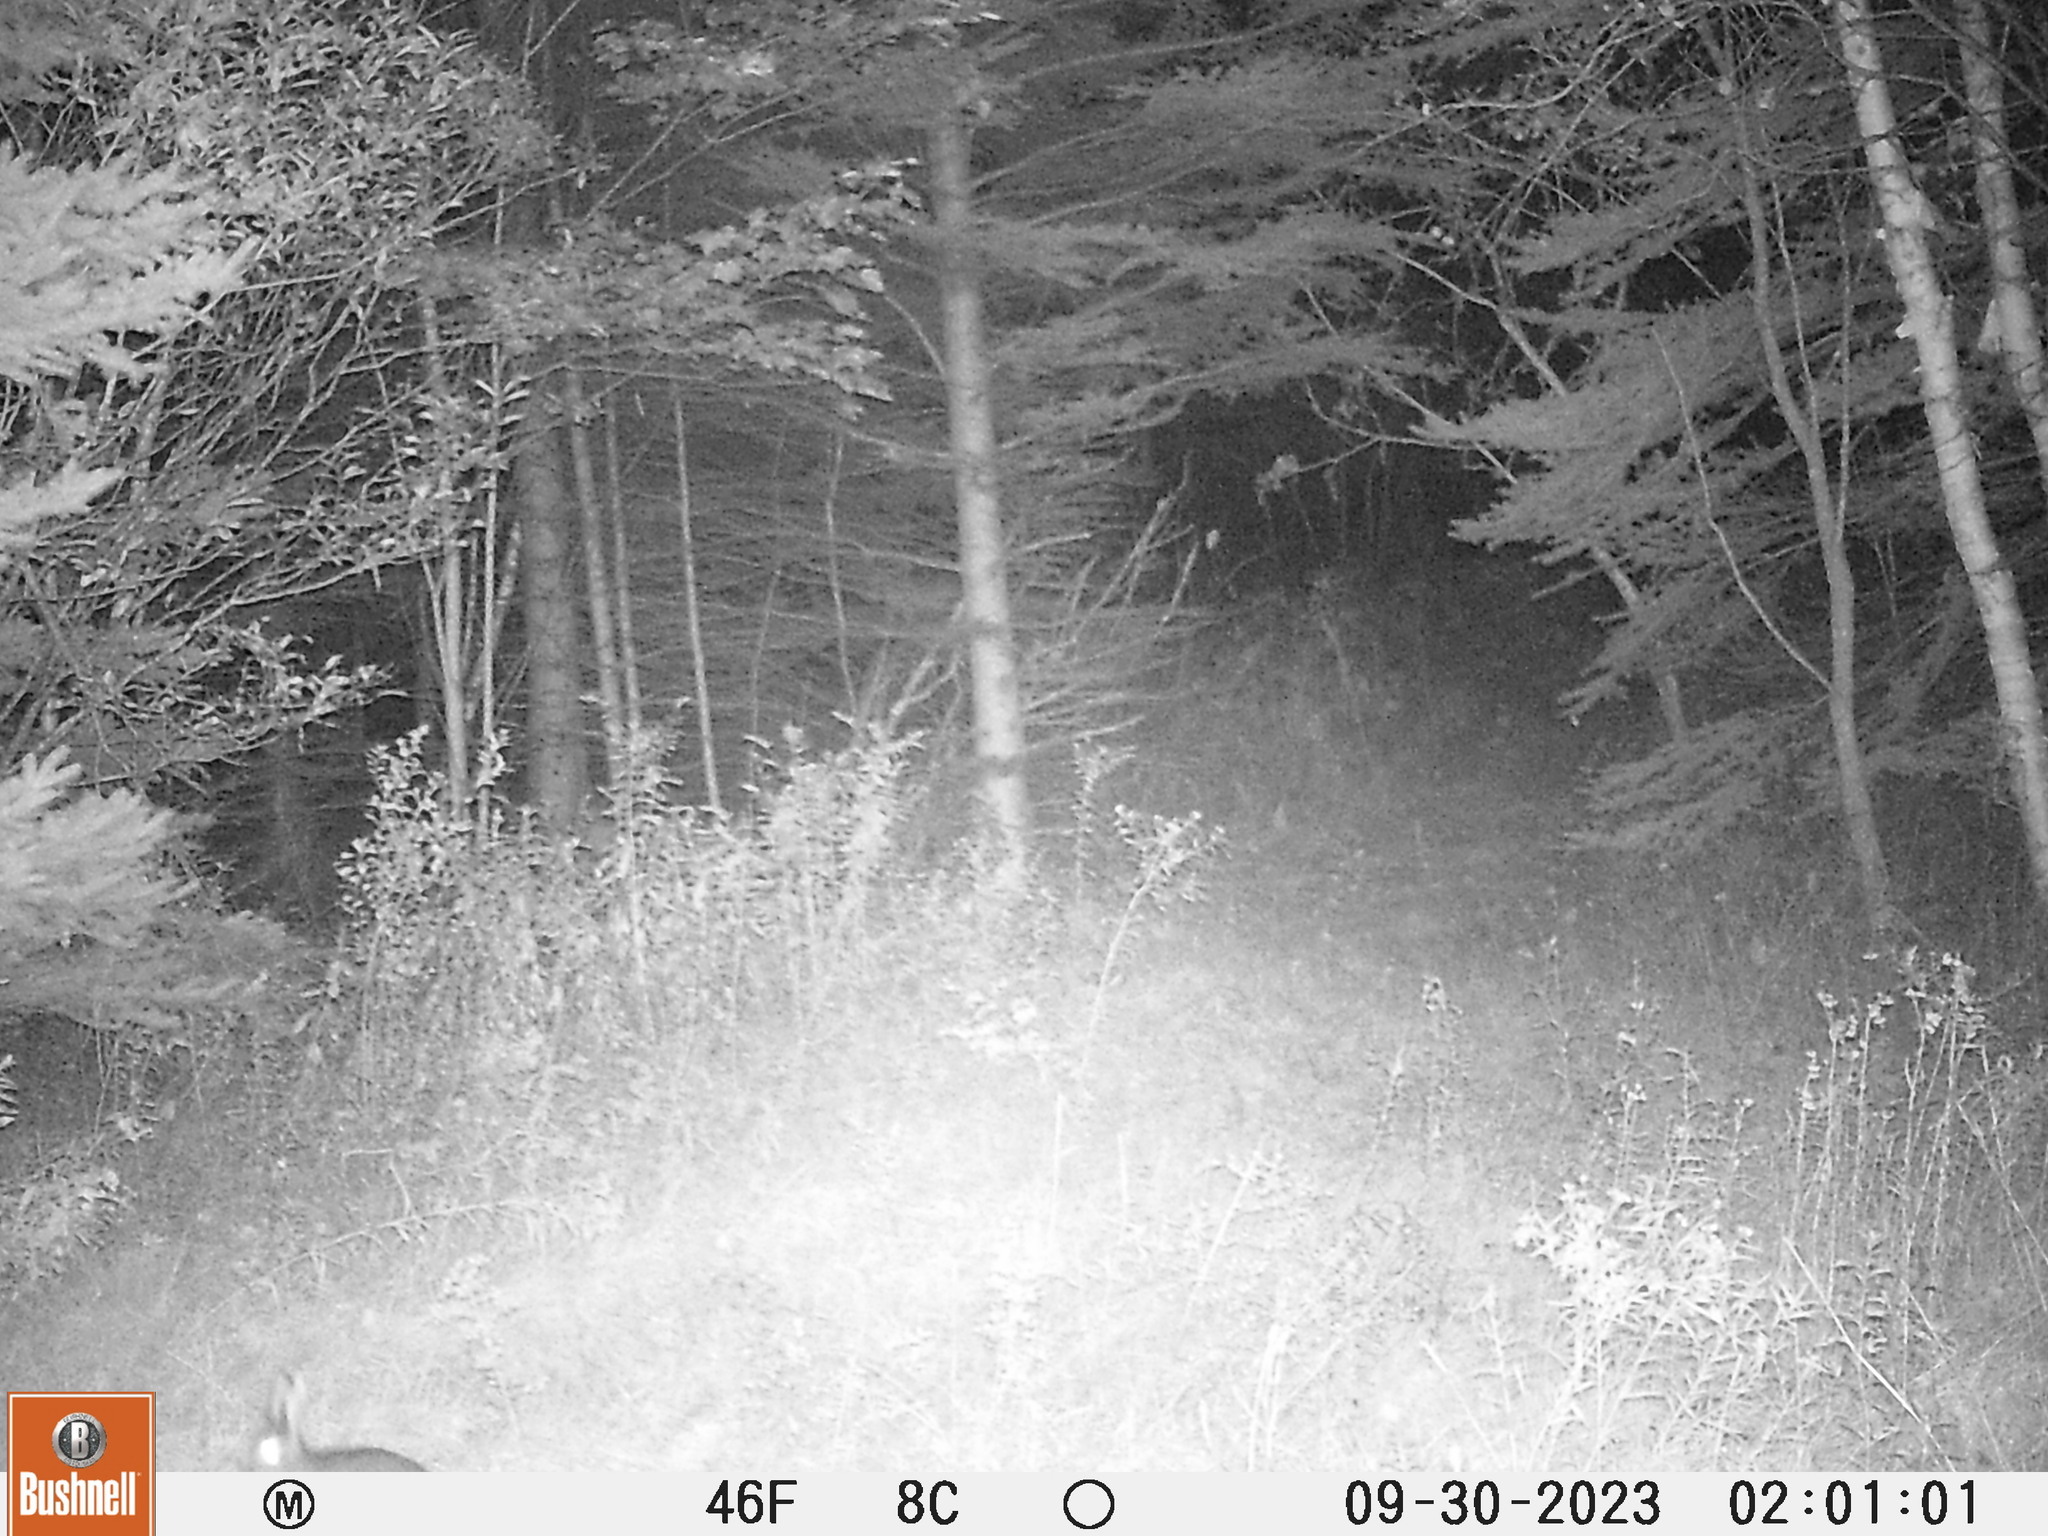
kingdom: Animalia
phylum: Chordata
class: Mammalia
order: Lagomorpha
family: Leporidae
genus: Lepus
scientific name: Lepus americanus
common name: Snowshoe hare
